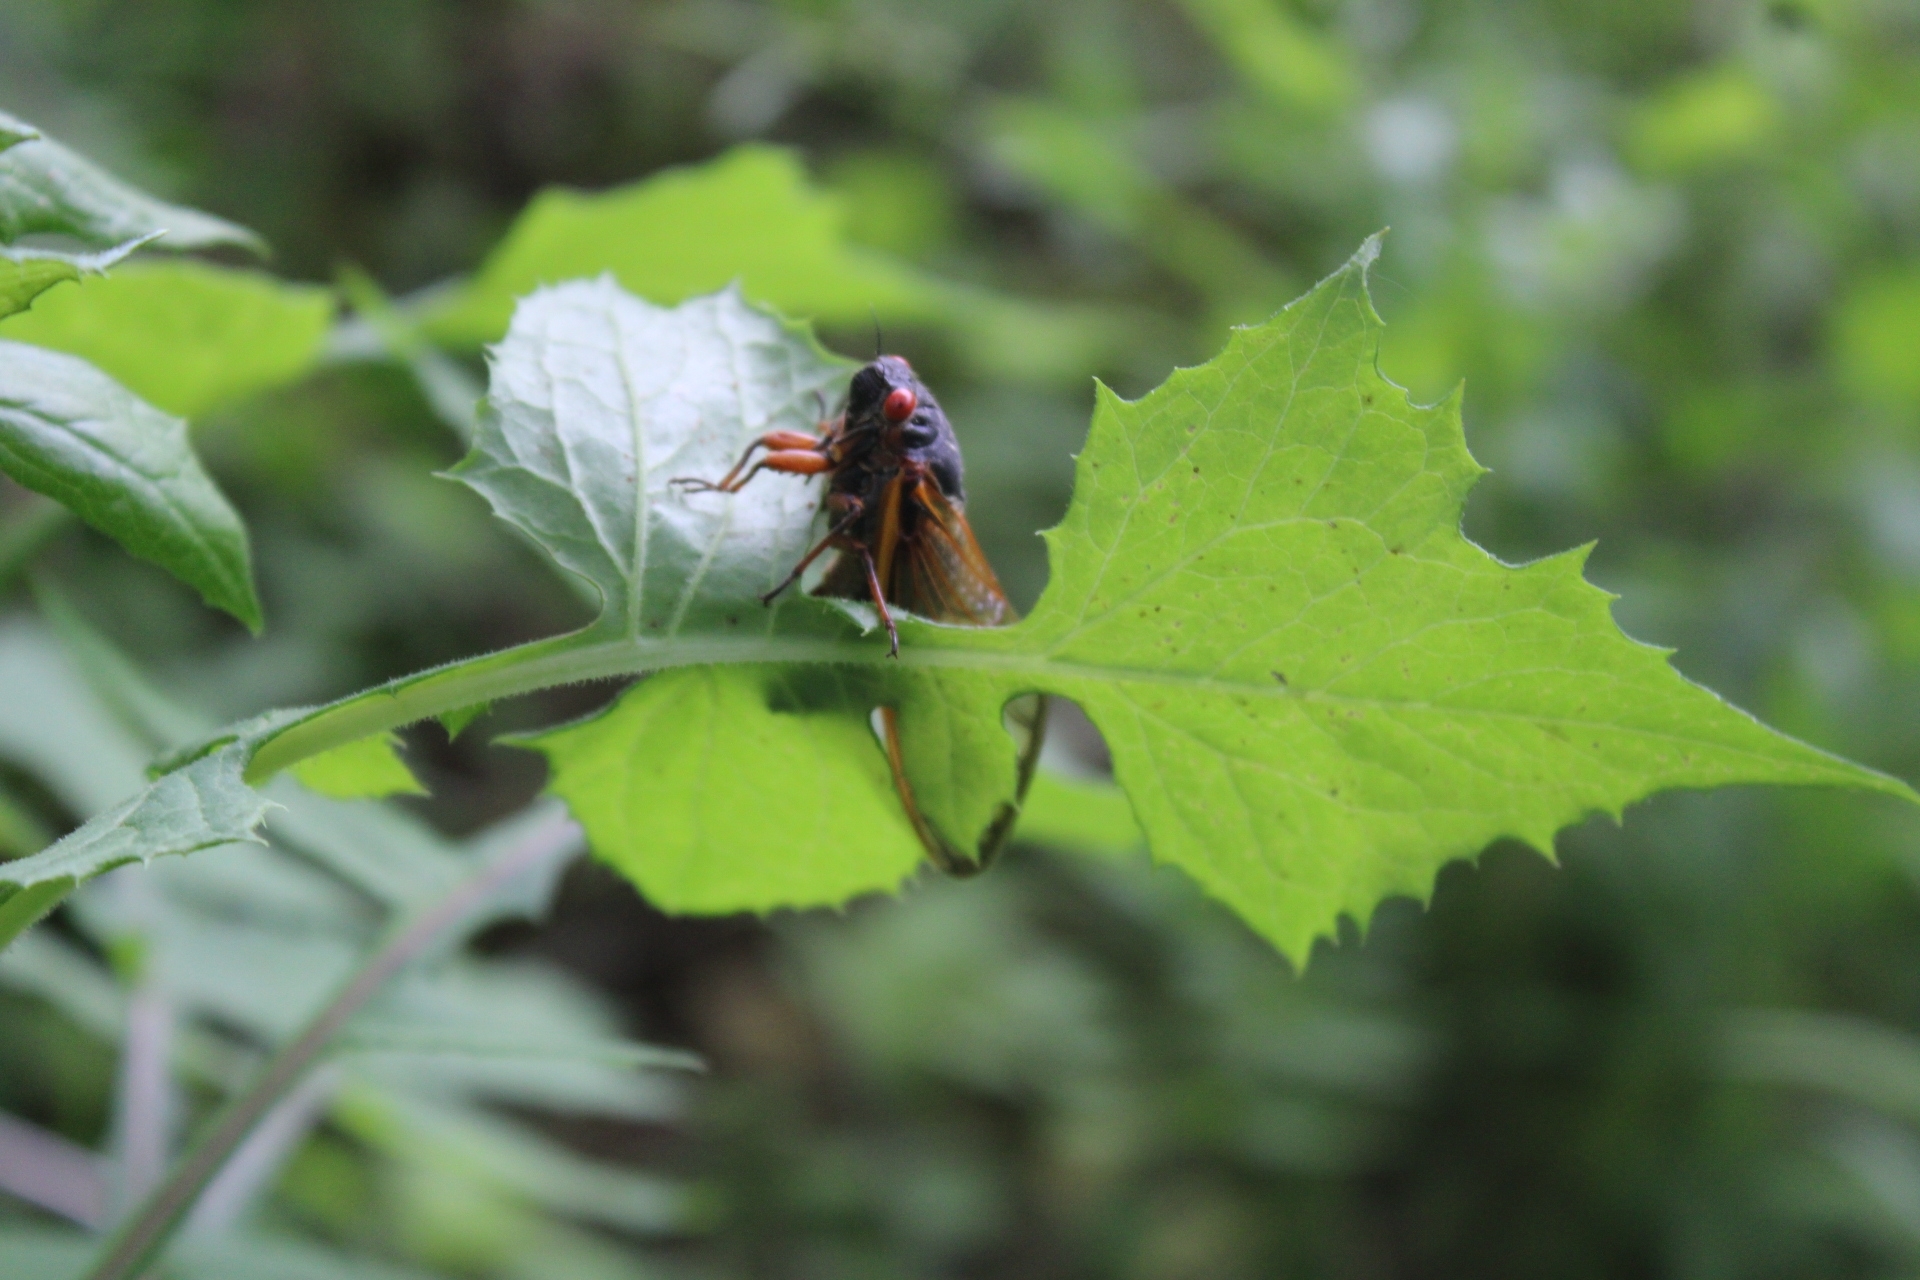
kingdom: Animalia
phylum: Arthropoda
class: Insecta
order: Hemiptera
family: Cicadidae
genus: Magicicada
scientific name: Magicicada septendecim
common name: Periodical cicada
